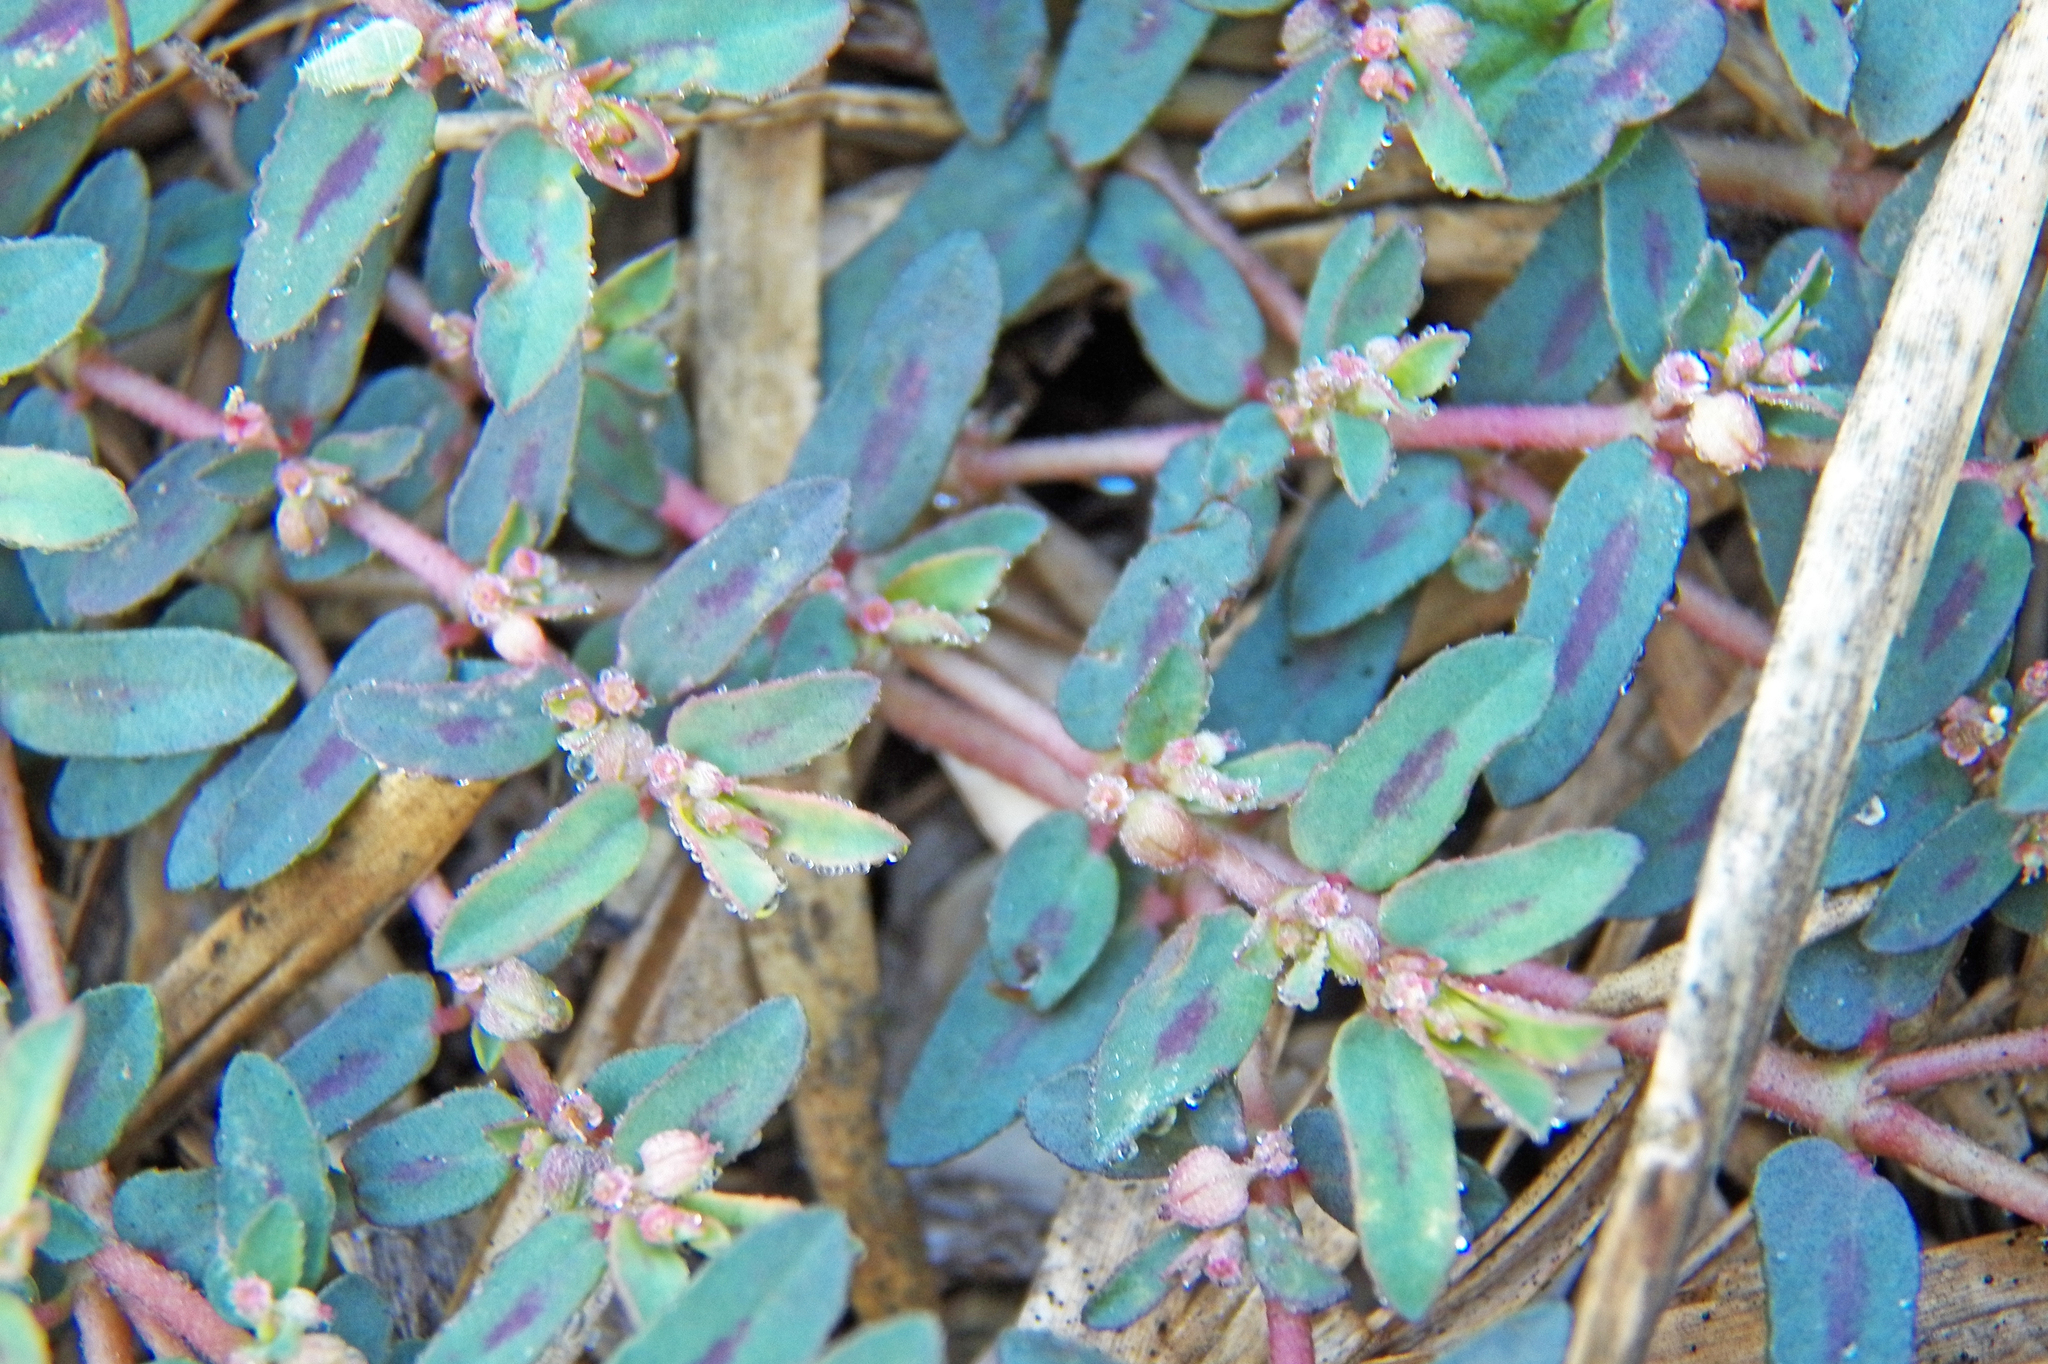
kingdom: Plantae
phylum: Tracheophyta
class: Magnoliopsida
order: Malpighiales
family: Euphorbiaceae
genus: Euphorbia
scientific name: Euphorbia maculata
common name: Spotted spurge
